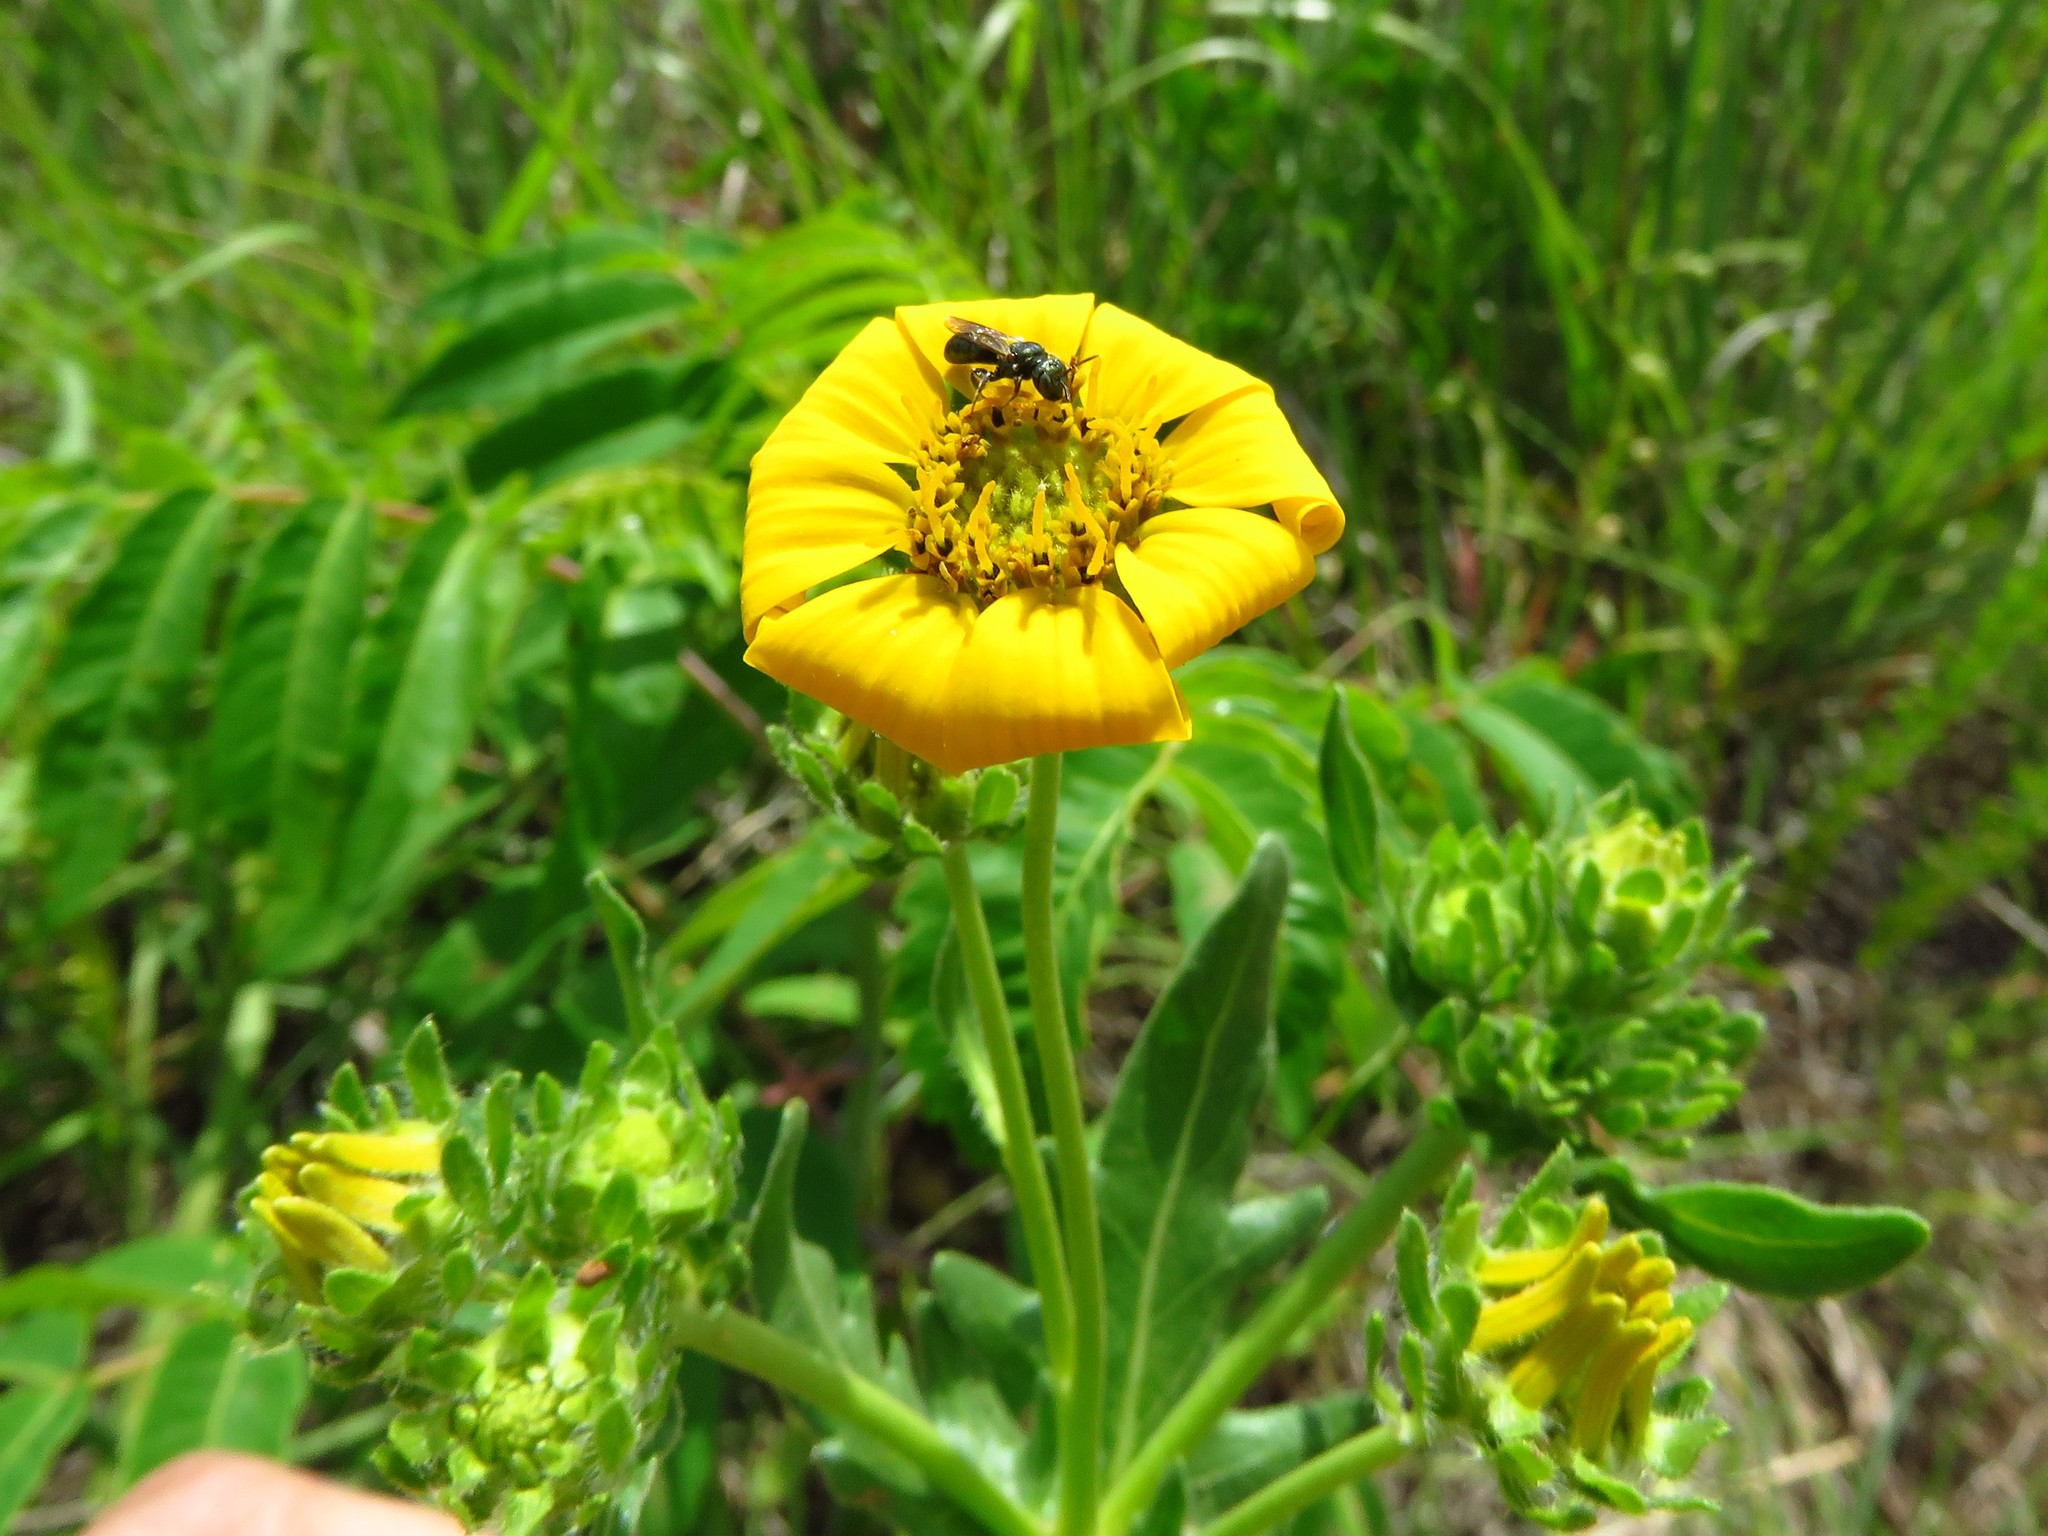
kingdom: Plantae
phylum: Tracheophyta
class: Magnoliopsida
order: Asterales
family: Asteraceae
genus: Engelmannia
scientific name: Engelmannia peristenia
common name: Engelmann's daisy
